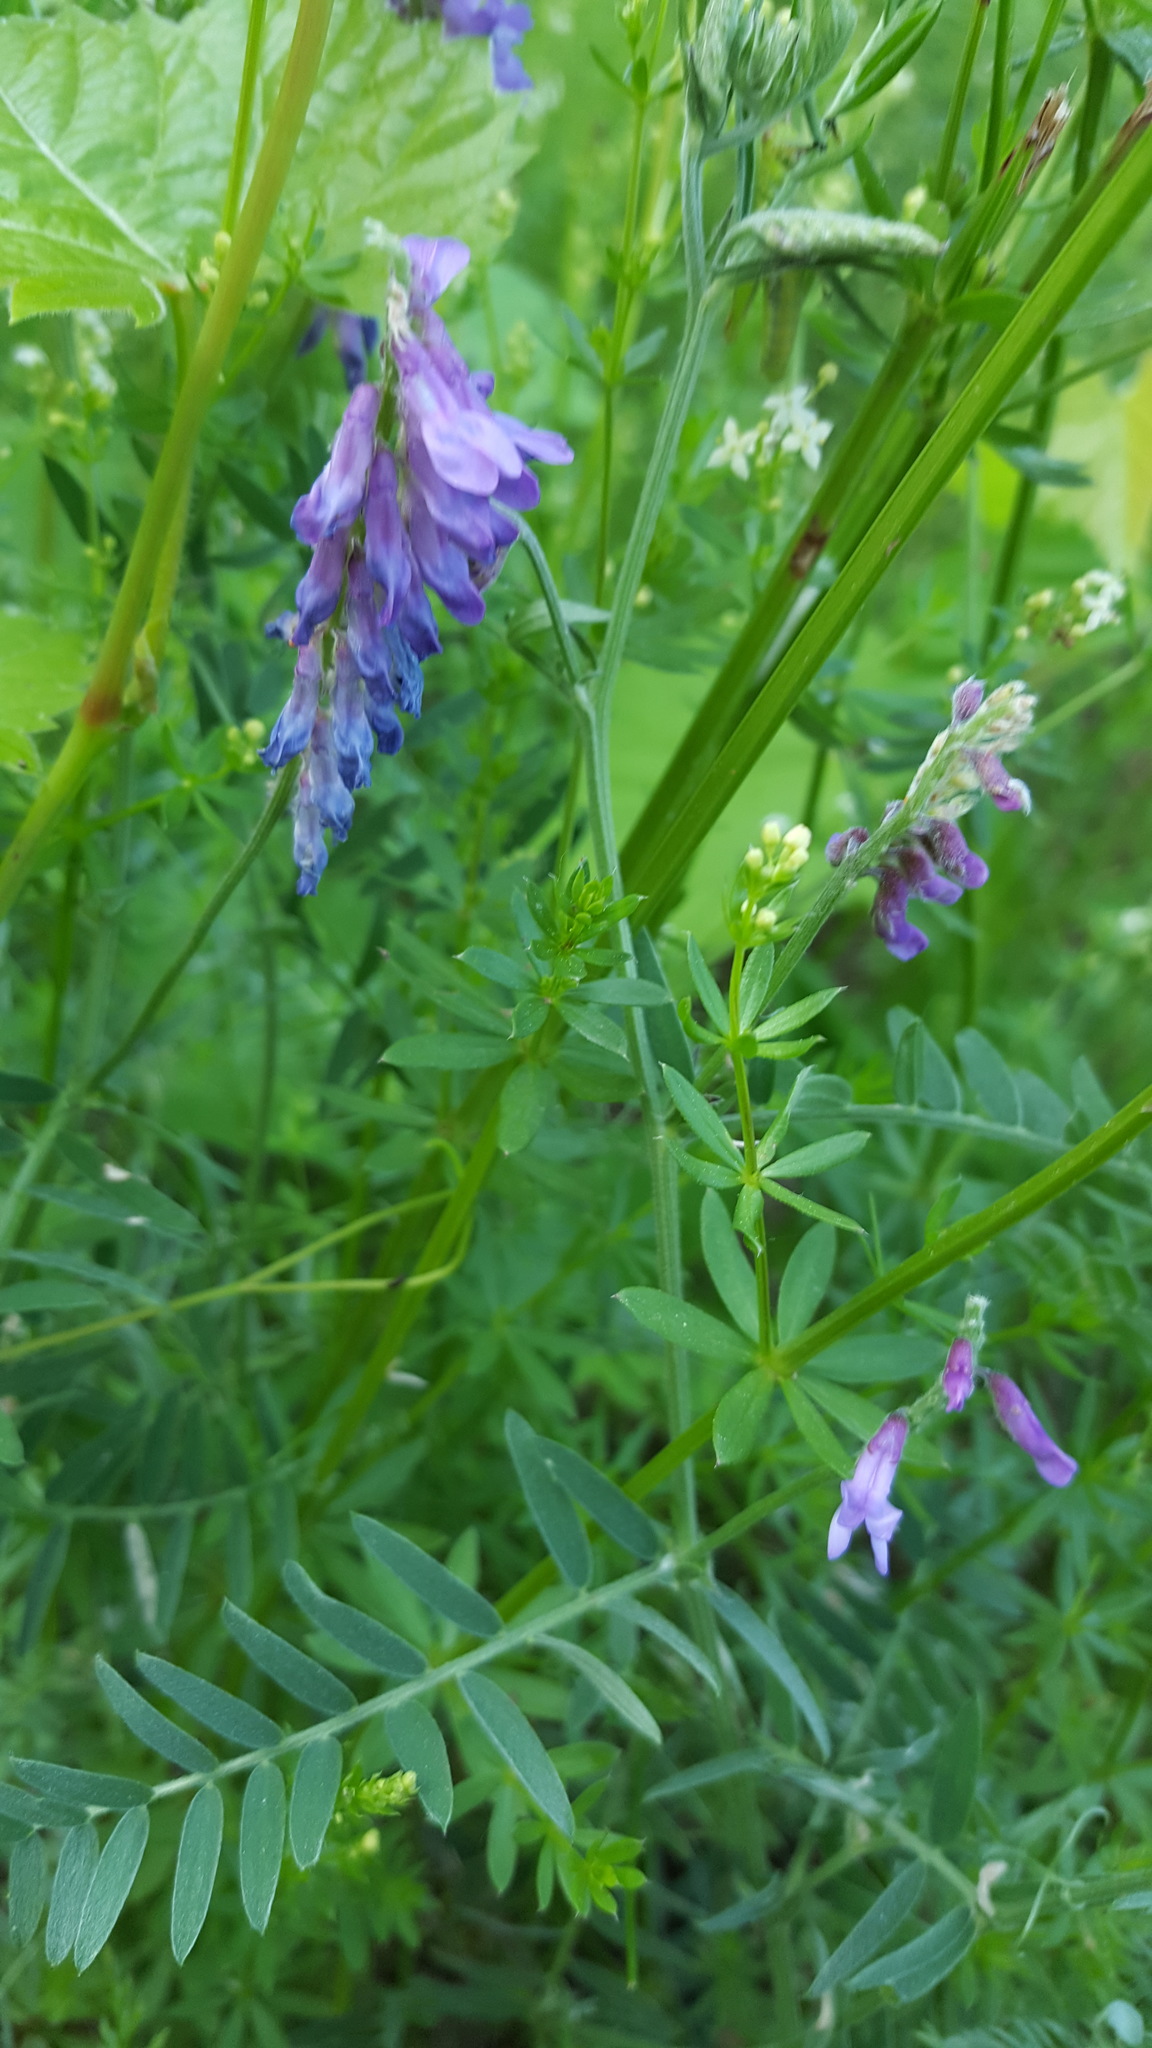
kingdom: Plantae
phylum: Tracheophyta
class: Magnoliopsida
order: Fabales
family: Fabaceae
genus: Vicia
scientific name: Vicia cracca
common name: Bird vetch
